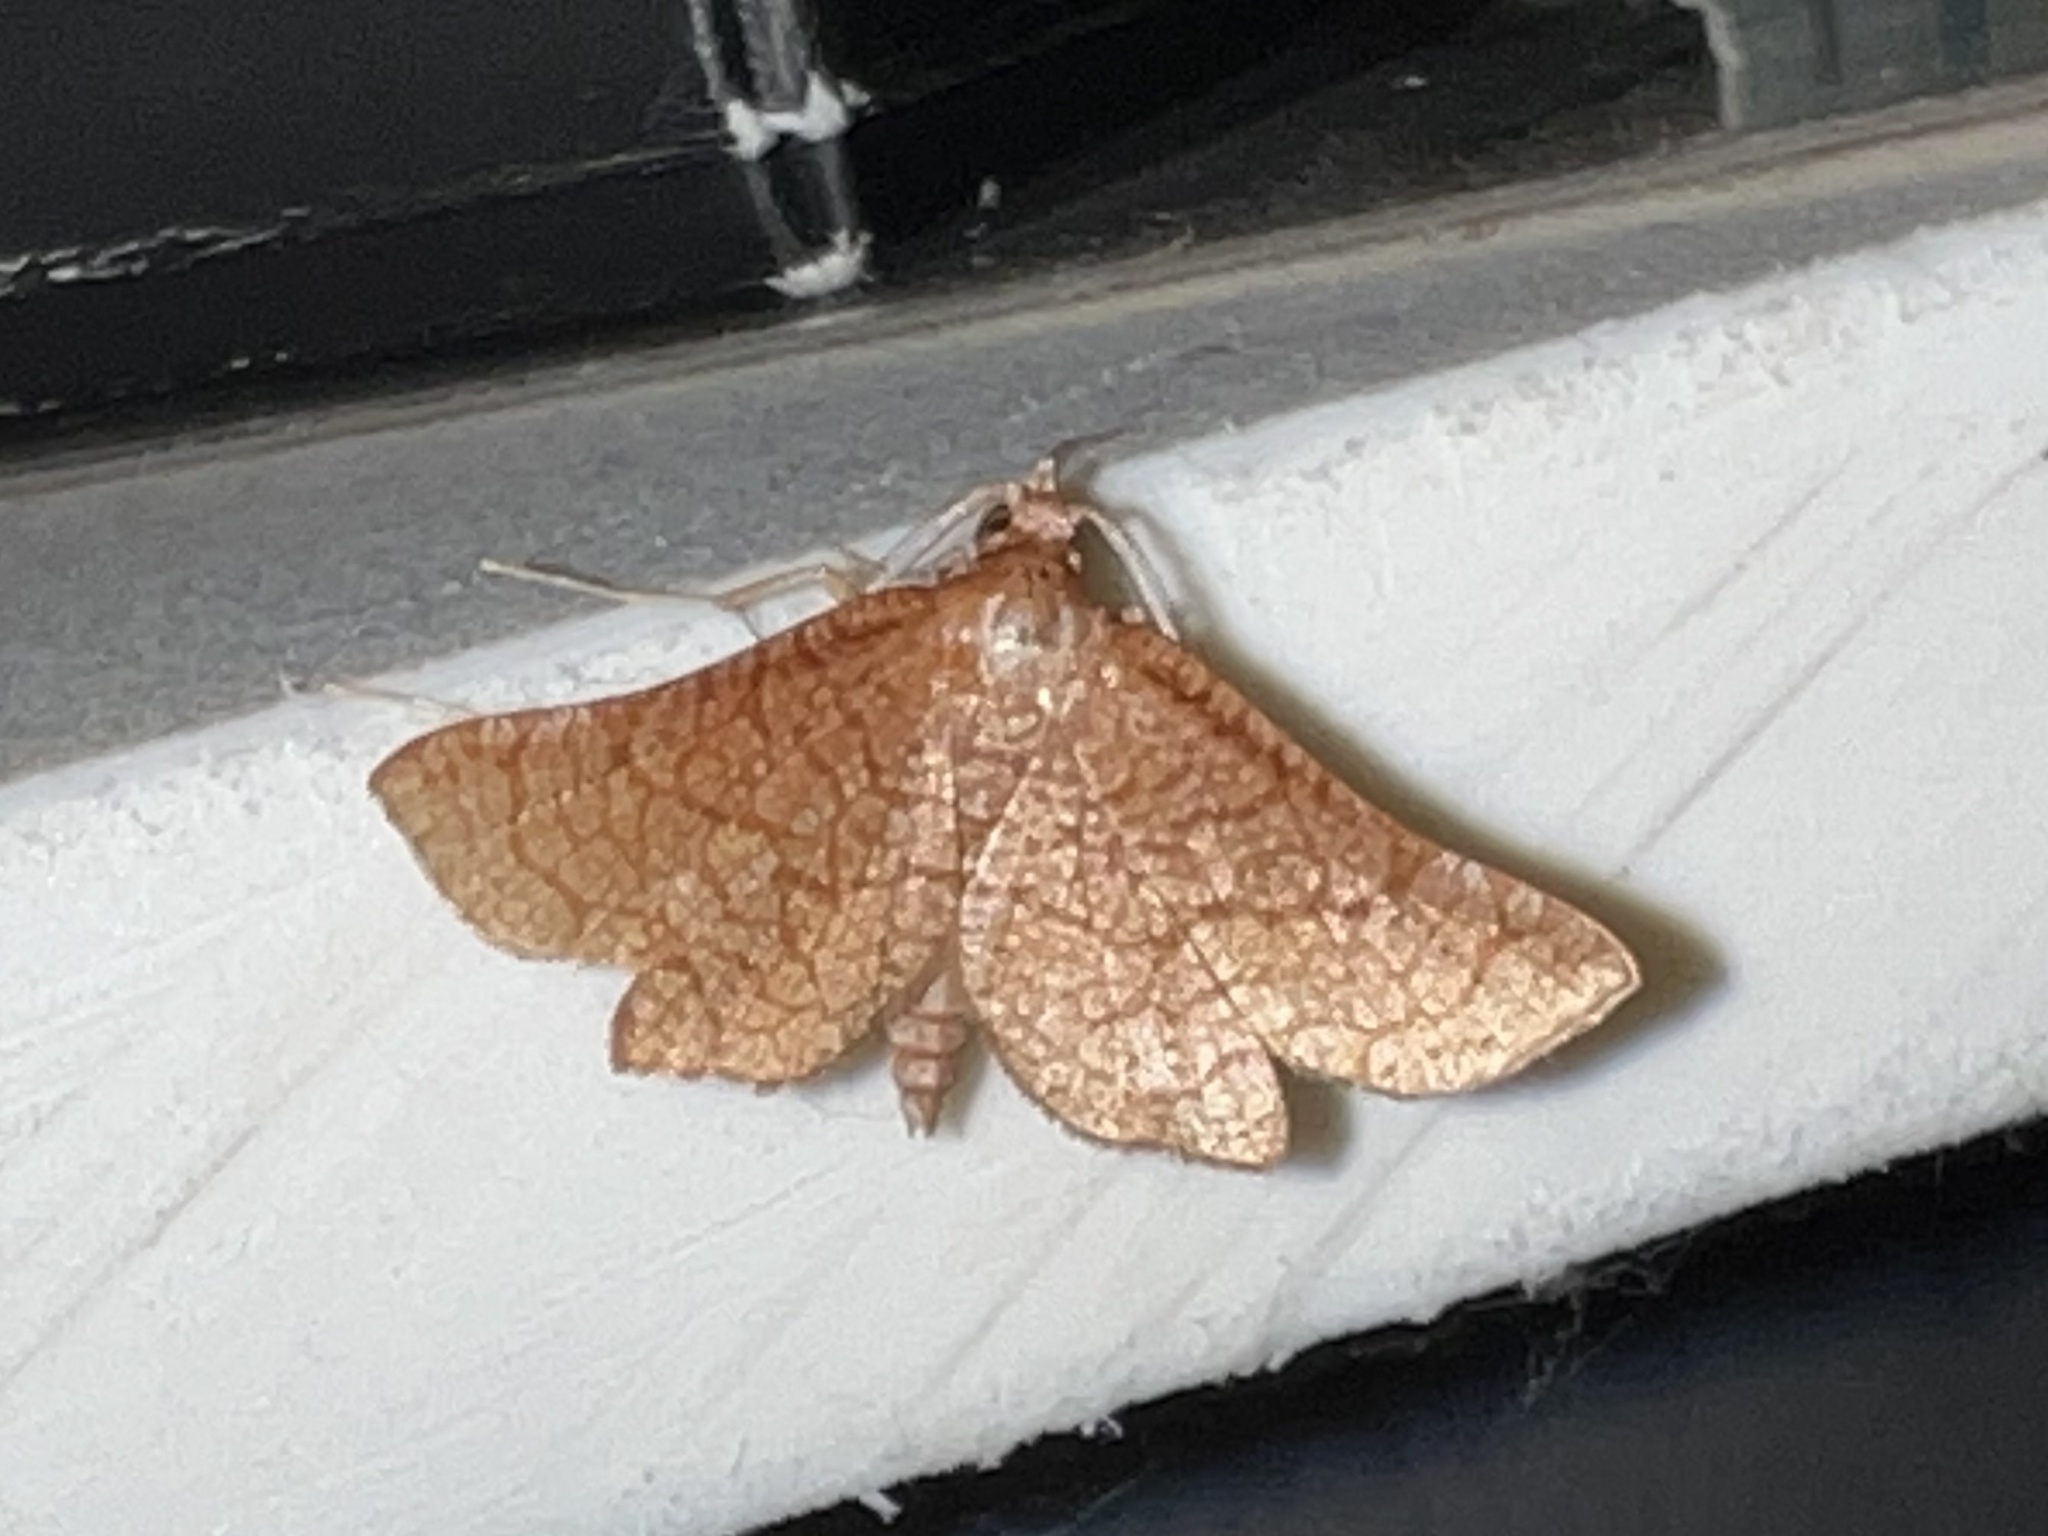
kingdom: Animalia
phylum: Arthropoda
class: Insecta
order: Lepidoptera
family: Thyrididae
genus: Hexeris
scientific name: Hexeris enhydris
